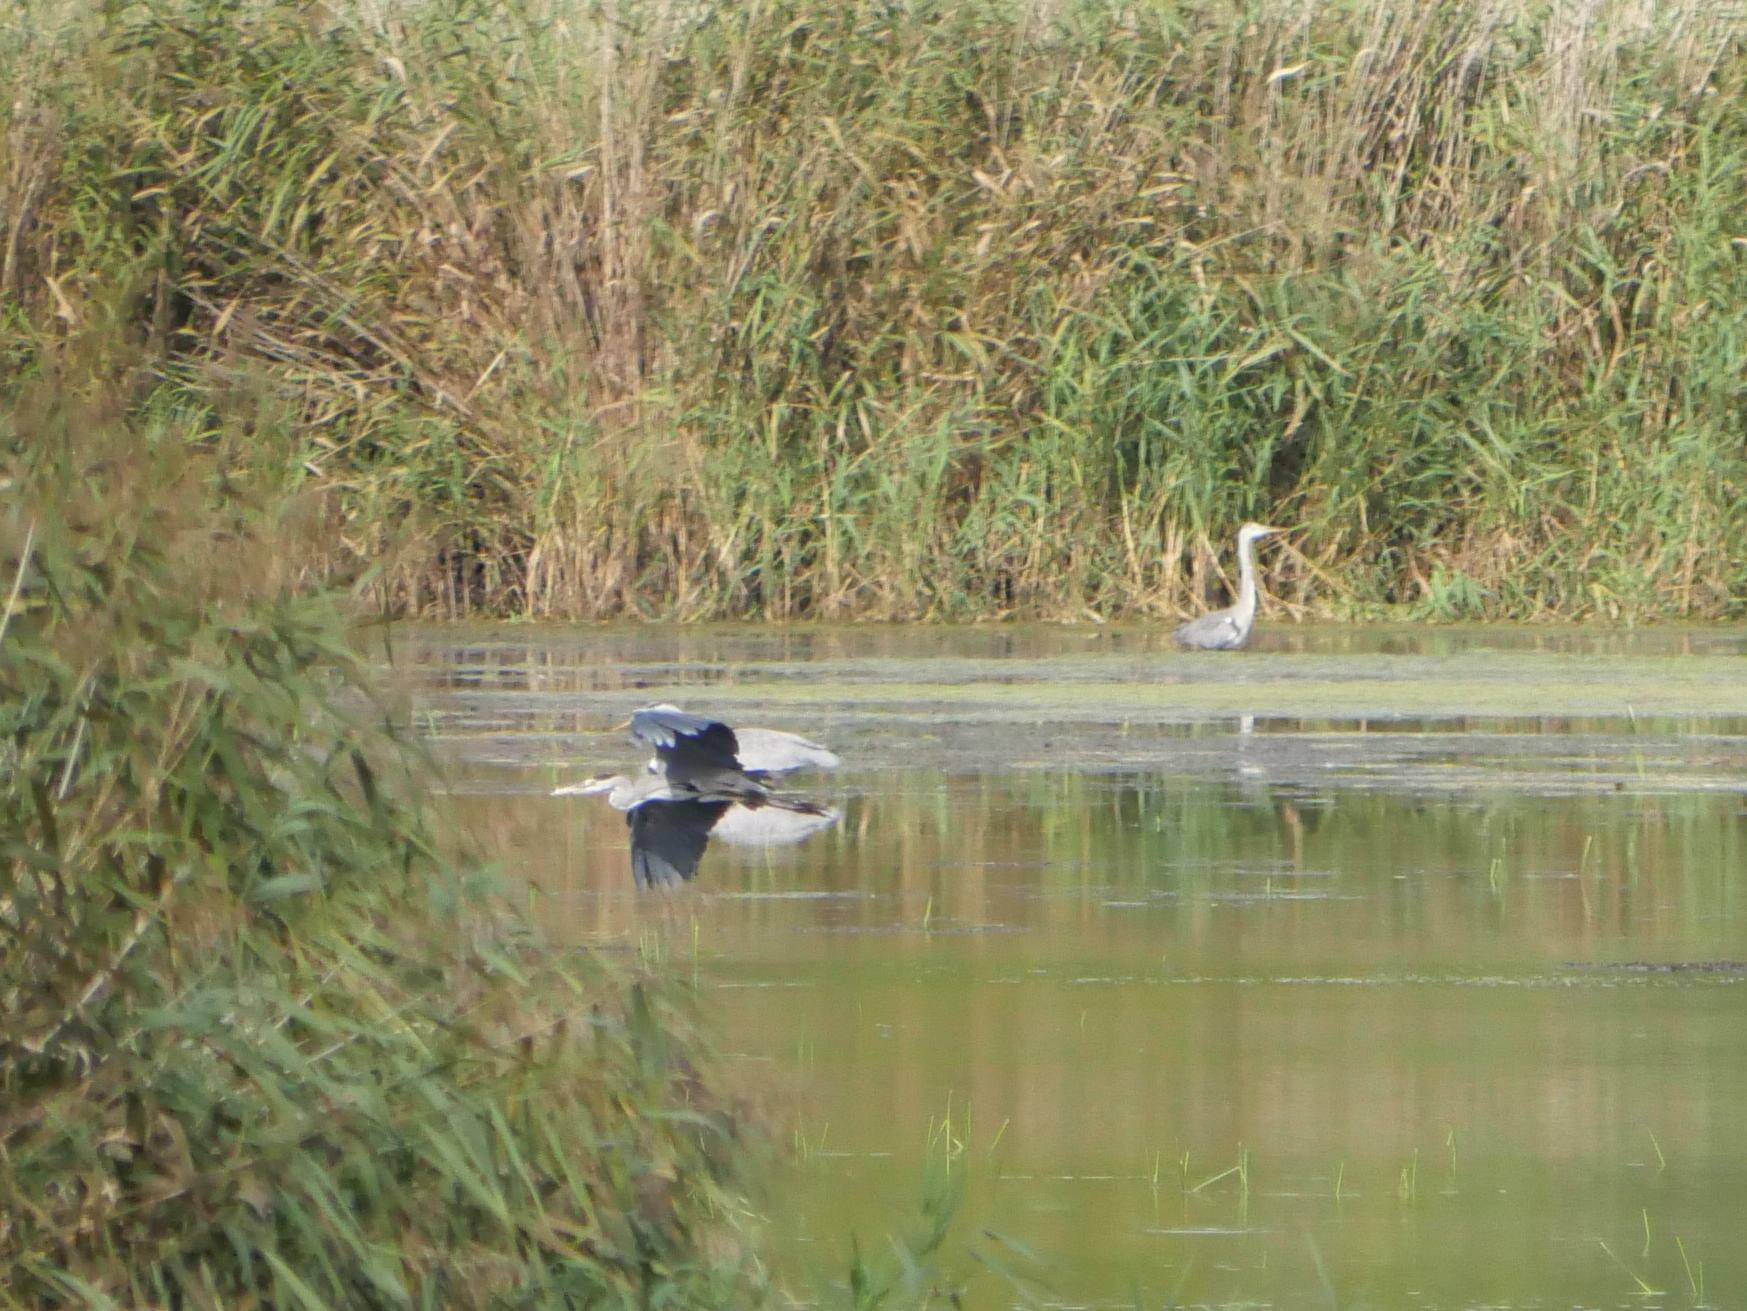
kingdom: Animalia
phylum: Chordata
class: Aves
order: Pelecaniformes
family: Ardeidae
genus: Ardea
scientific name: Ardea cinerea
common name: Grey heron
